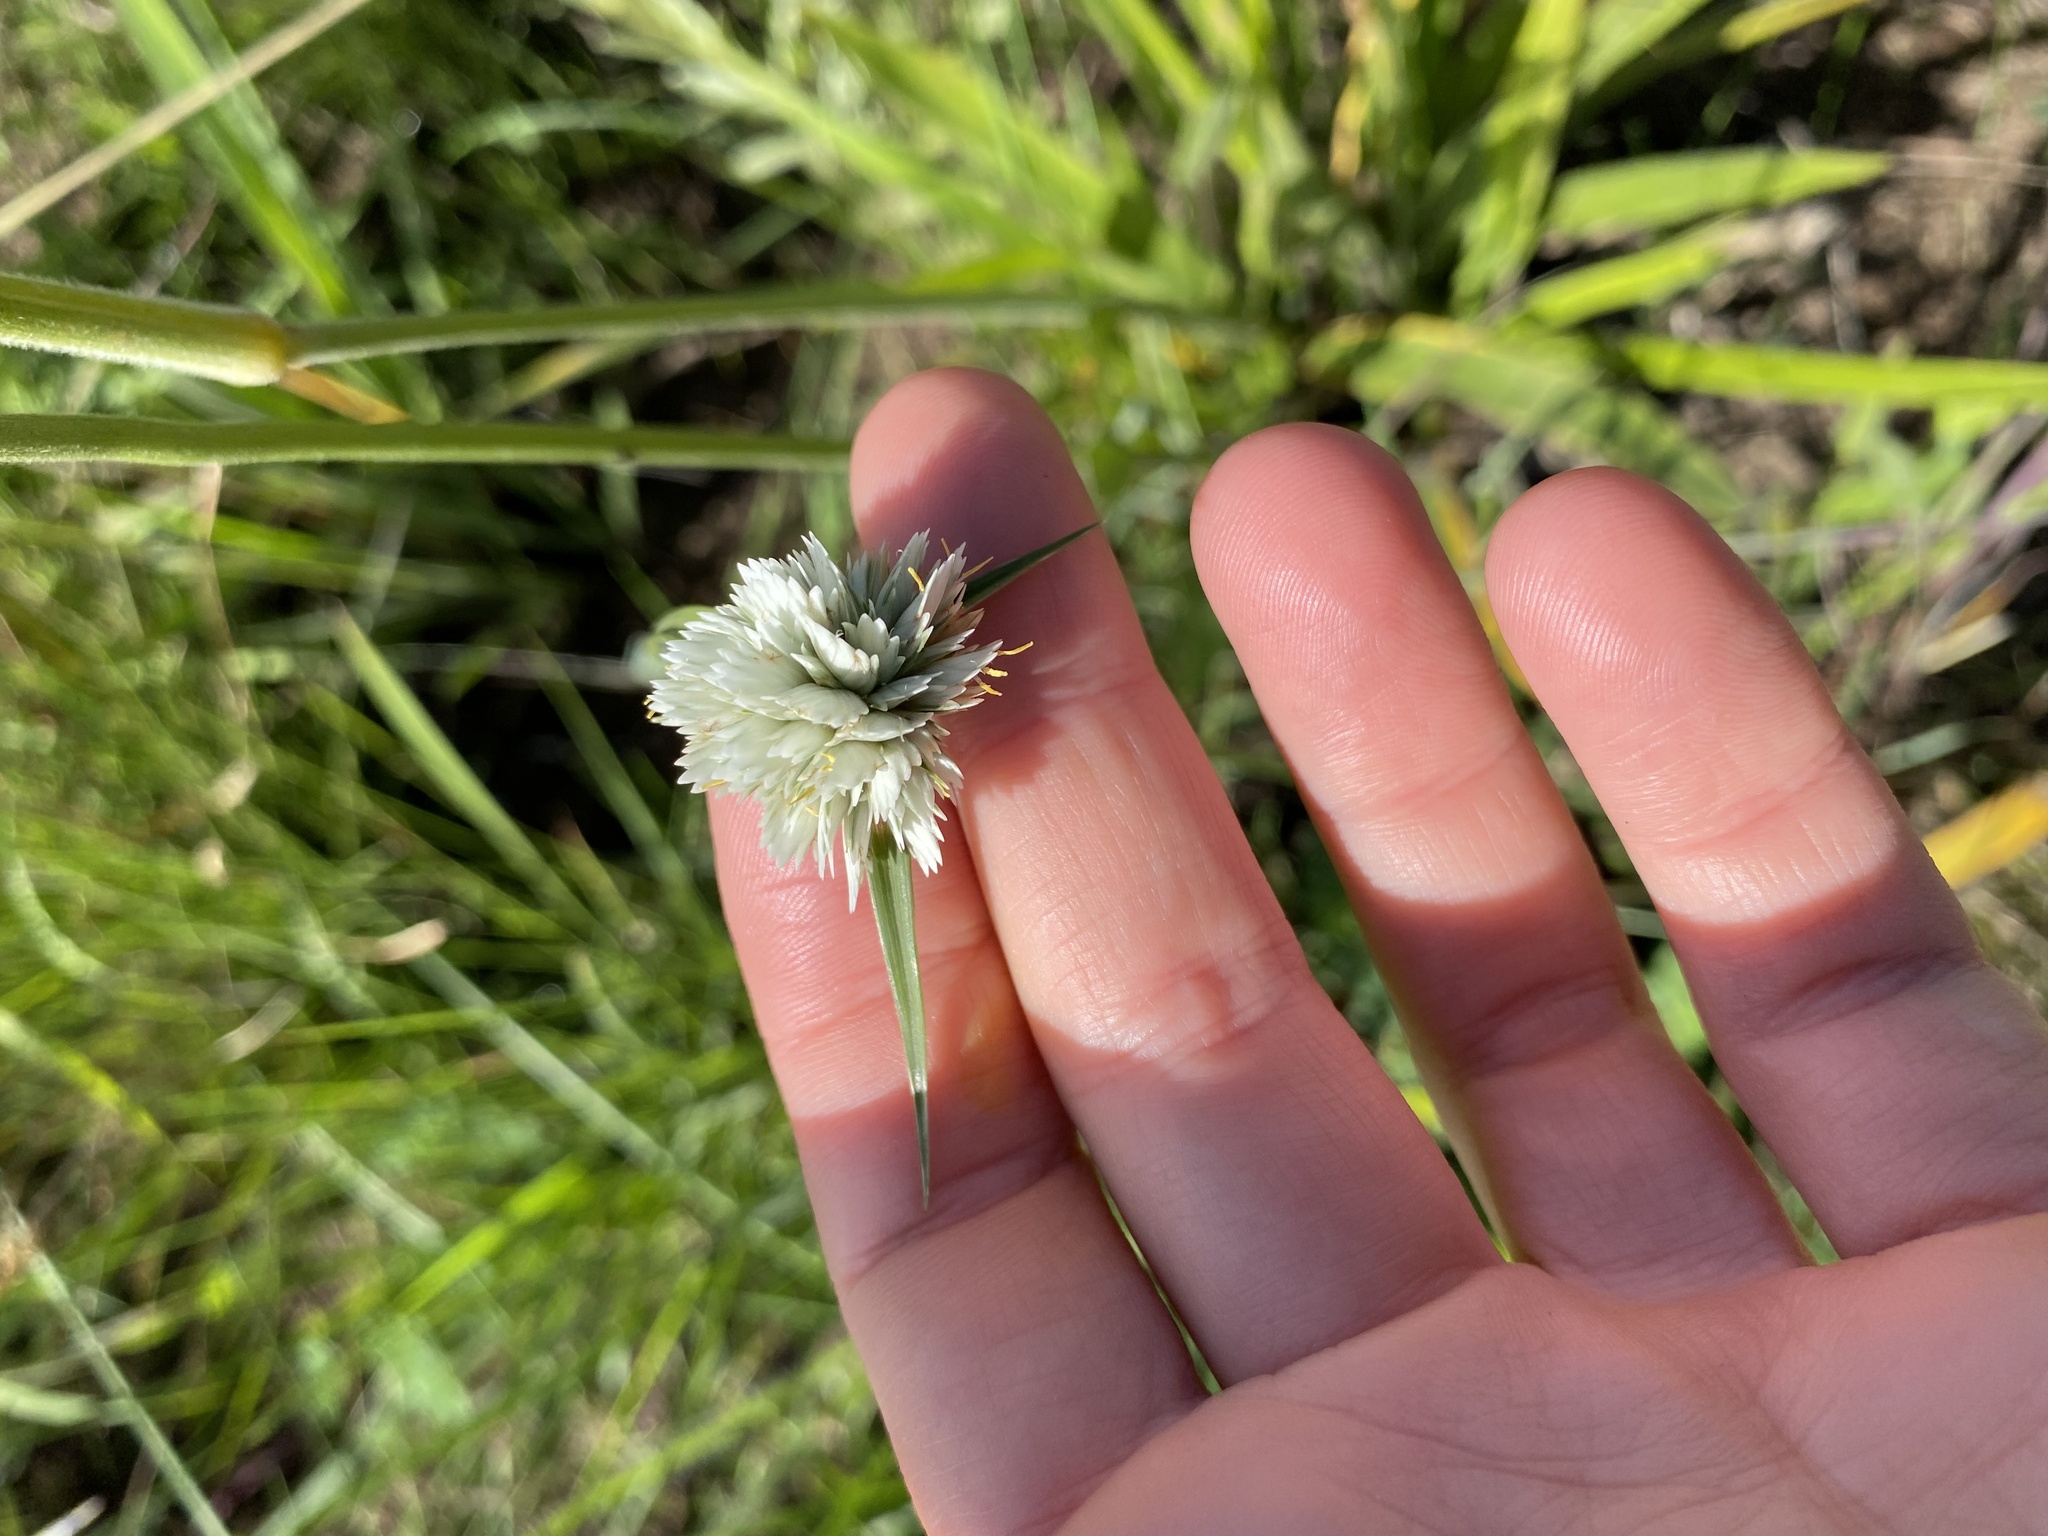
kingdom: Plantae
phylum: Tracheophyta
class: Liliopsida
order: Poales
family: Cyperaceae
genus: Cyperus
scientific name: Cyperus niveus
